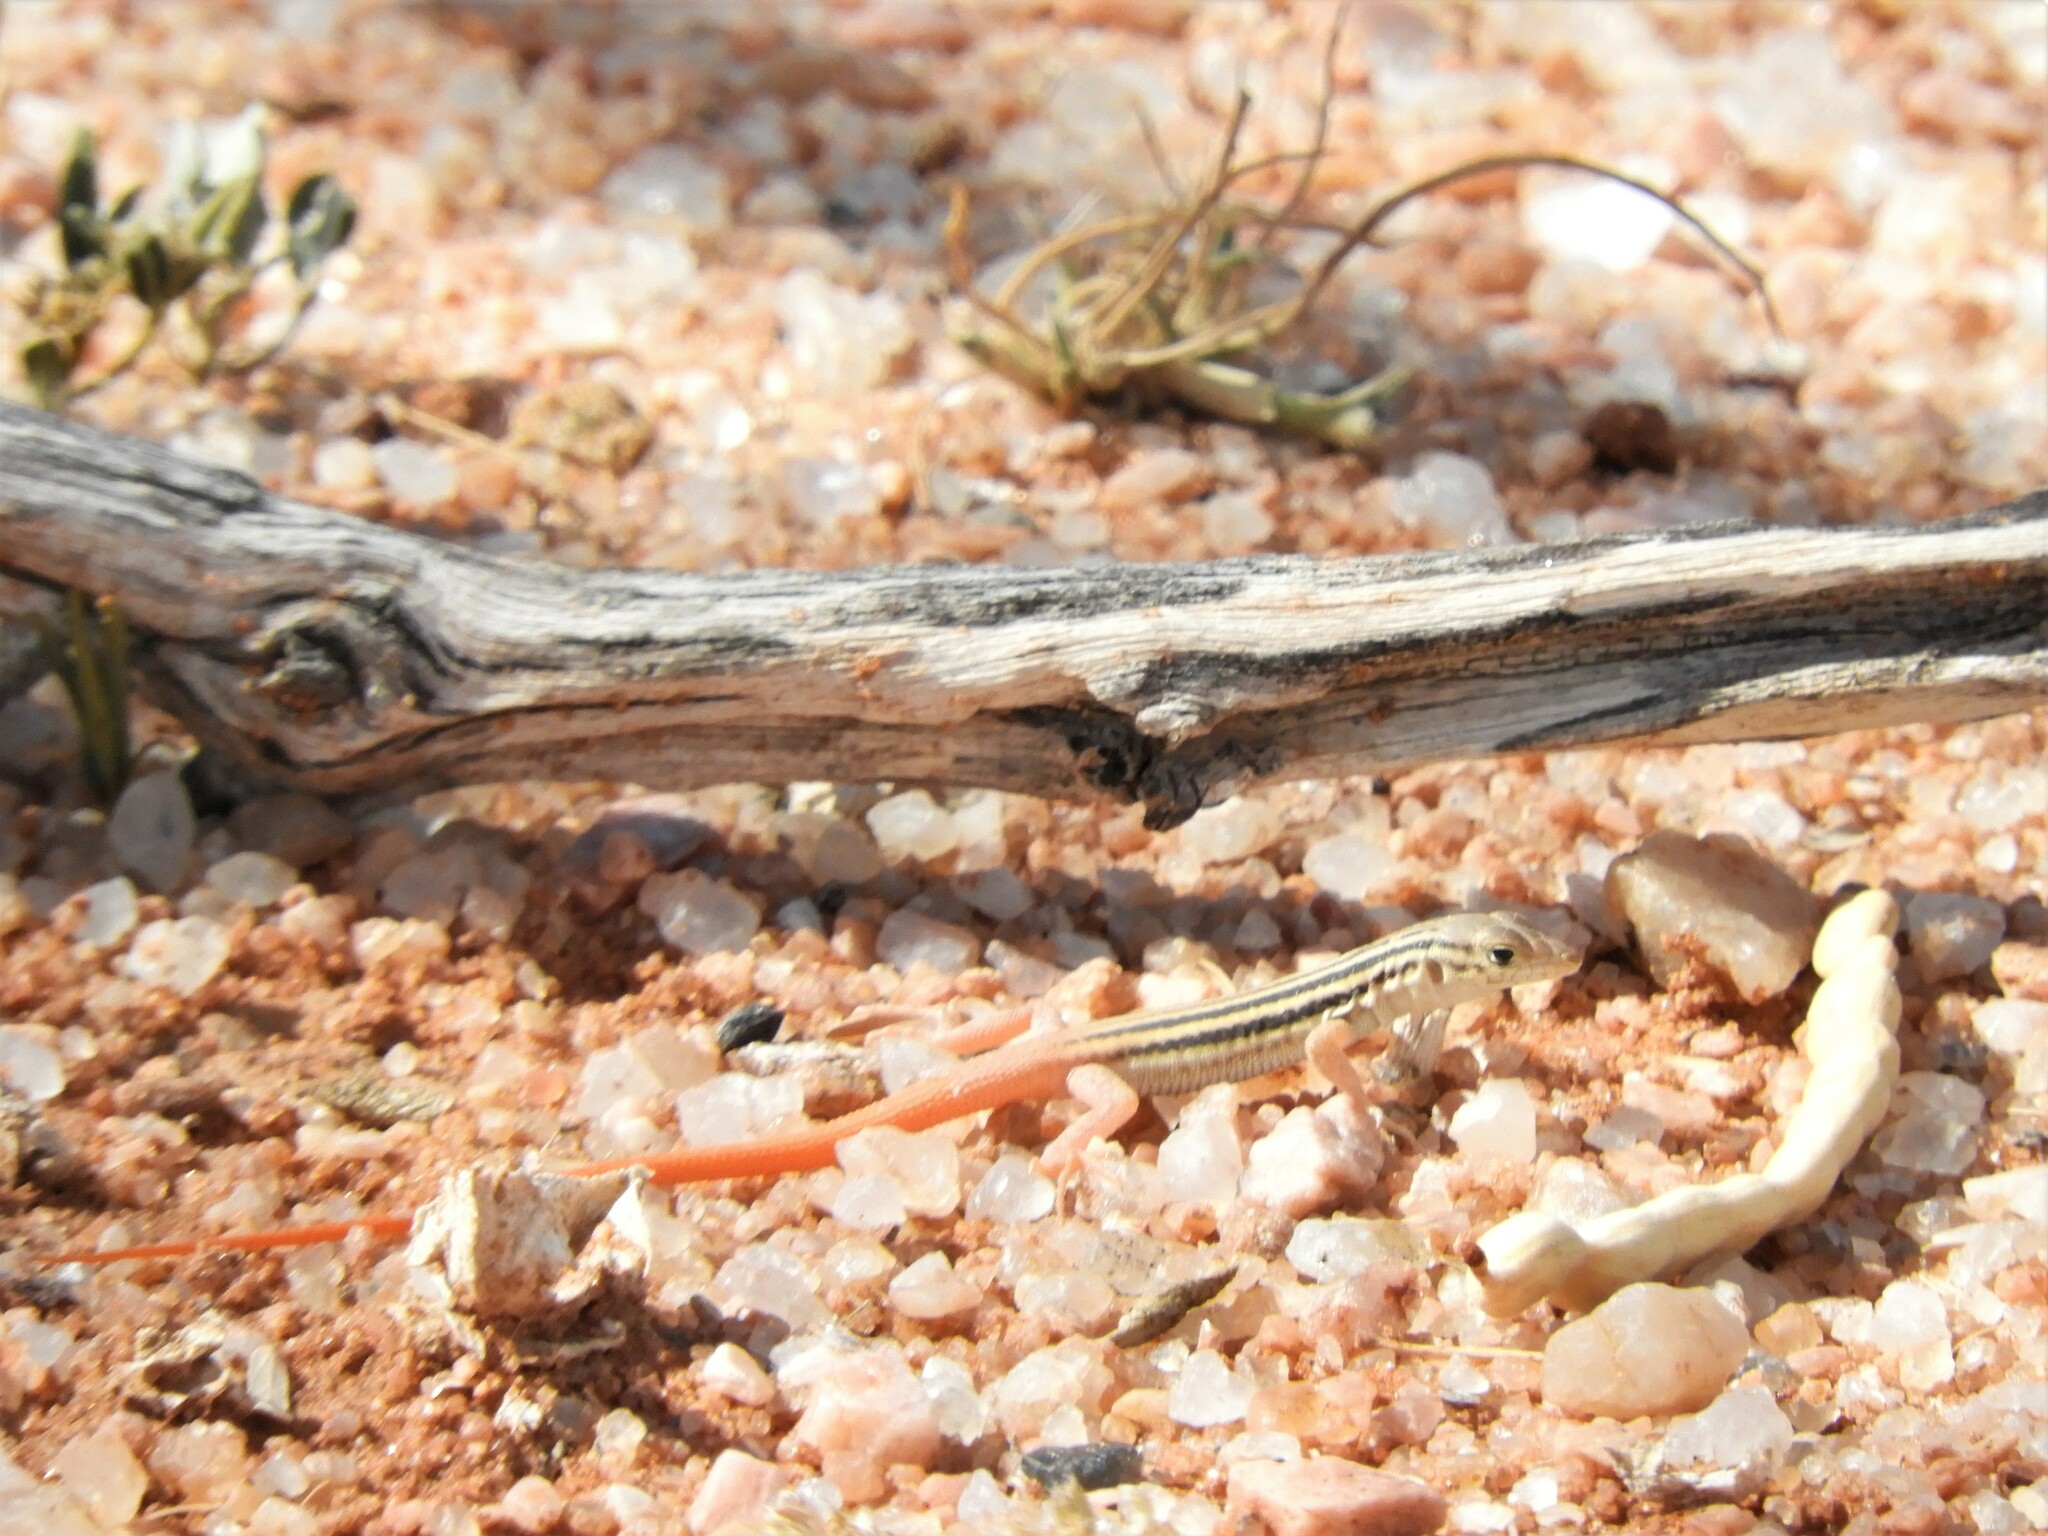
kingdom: Animalia
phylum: Chordata
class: Squamata
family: Lacertidae
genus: Pedioplanis
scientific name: Pedioplanis namaquensis
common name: Namaqua sand lizard
